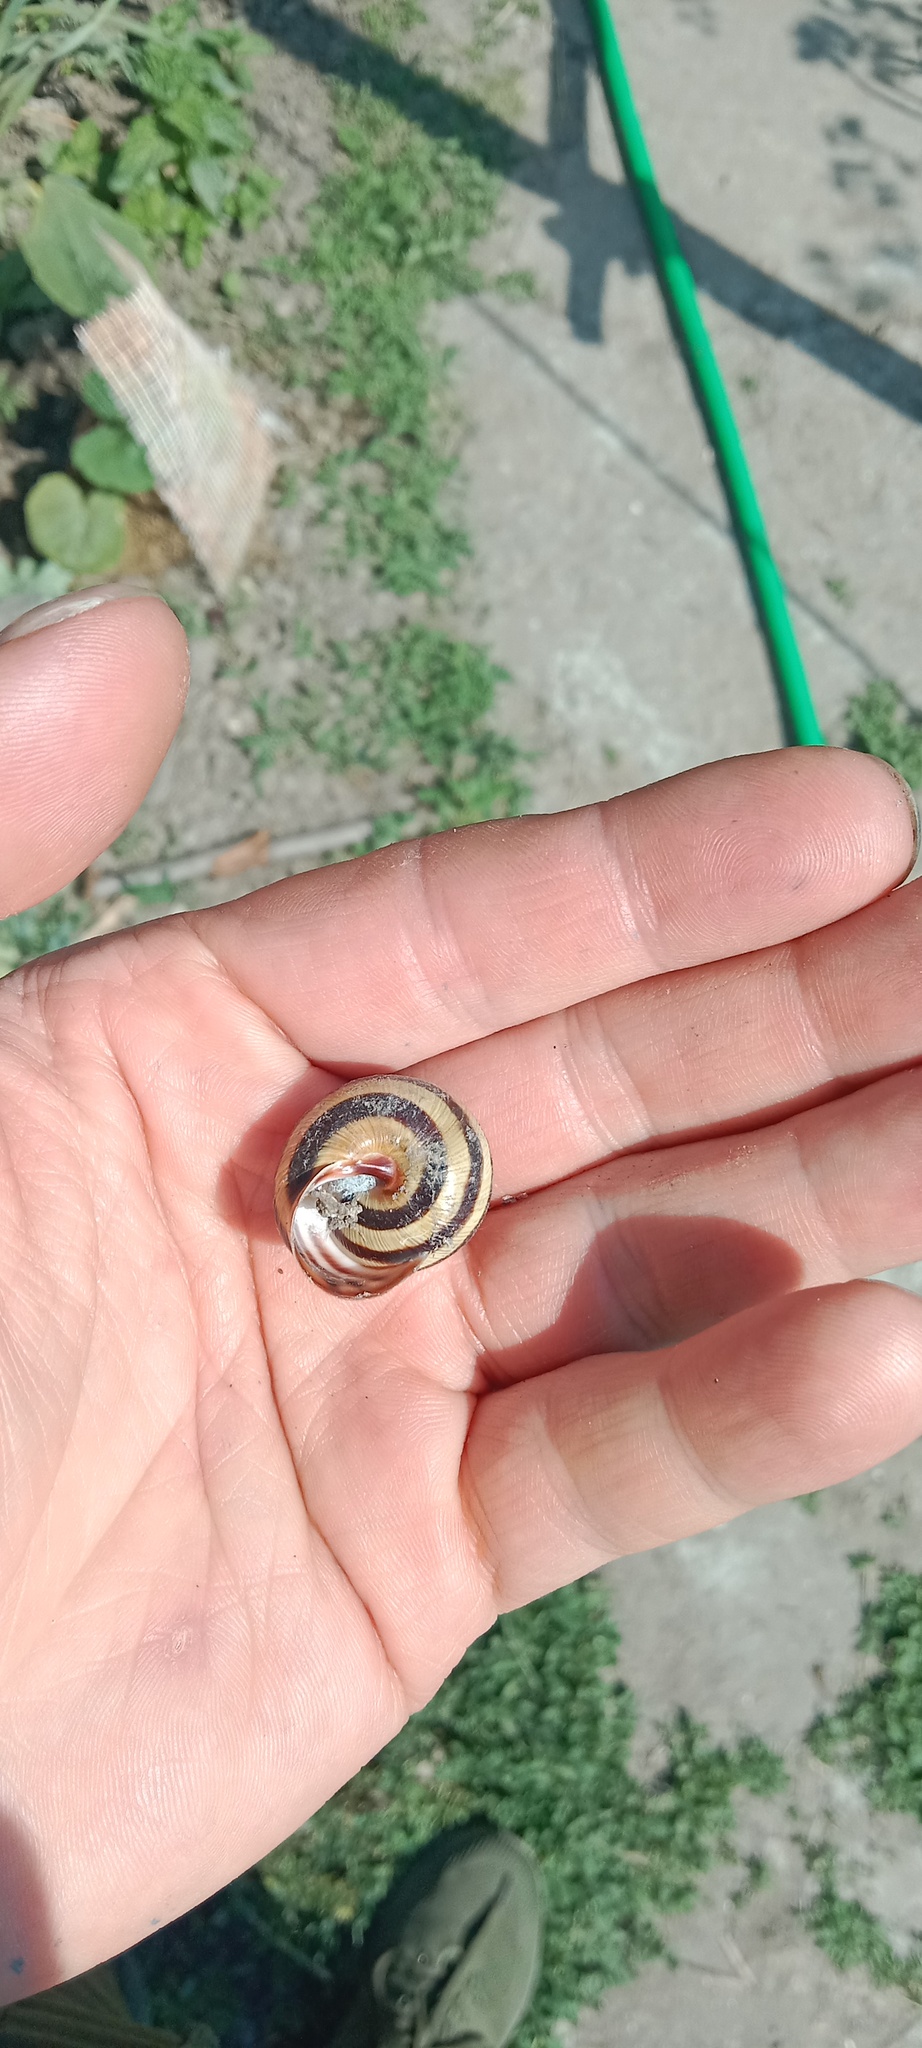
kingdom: Animalia
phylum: Mollusca
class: Gastropoda
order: Stylommatophora
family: Helicidae
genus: Caucasotachea
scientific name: Caucasotachea vindobonensis
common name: European helicid land snail
